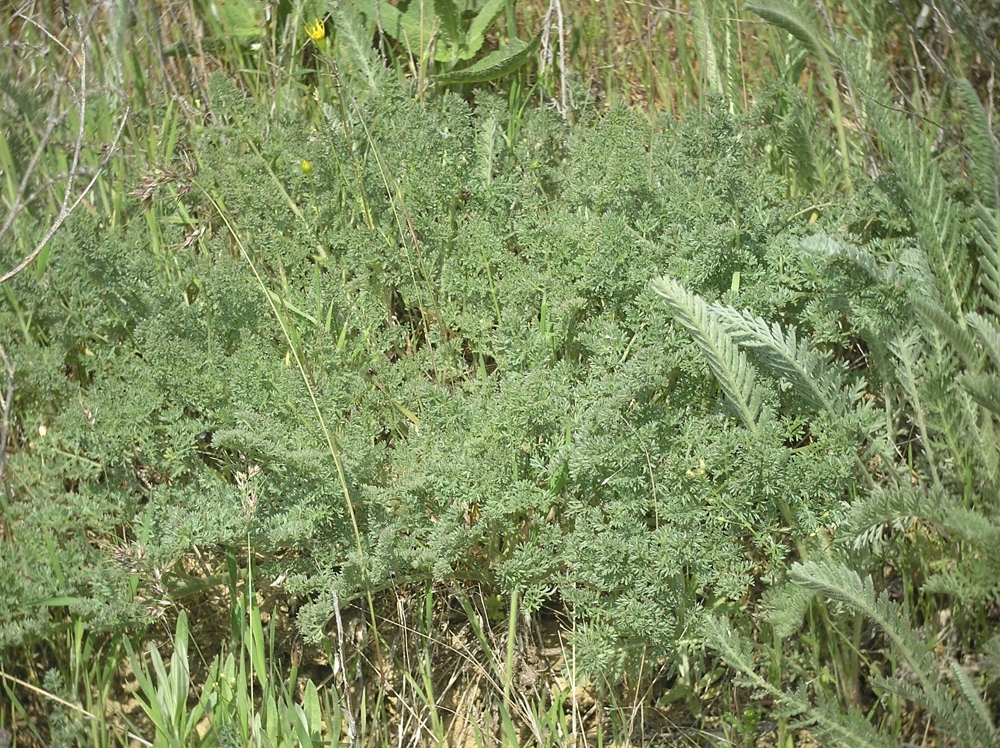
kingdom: Plantae
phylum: Tracheophyta
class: Magnoliopsida
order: Apiales
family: Apiaceae
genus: Ferula
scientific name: Ferula caspica
